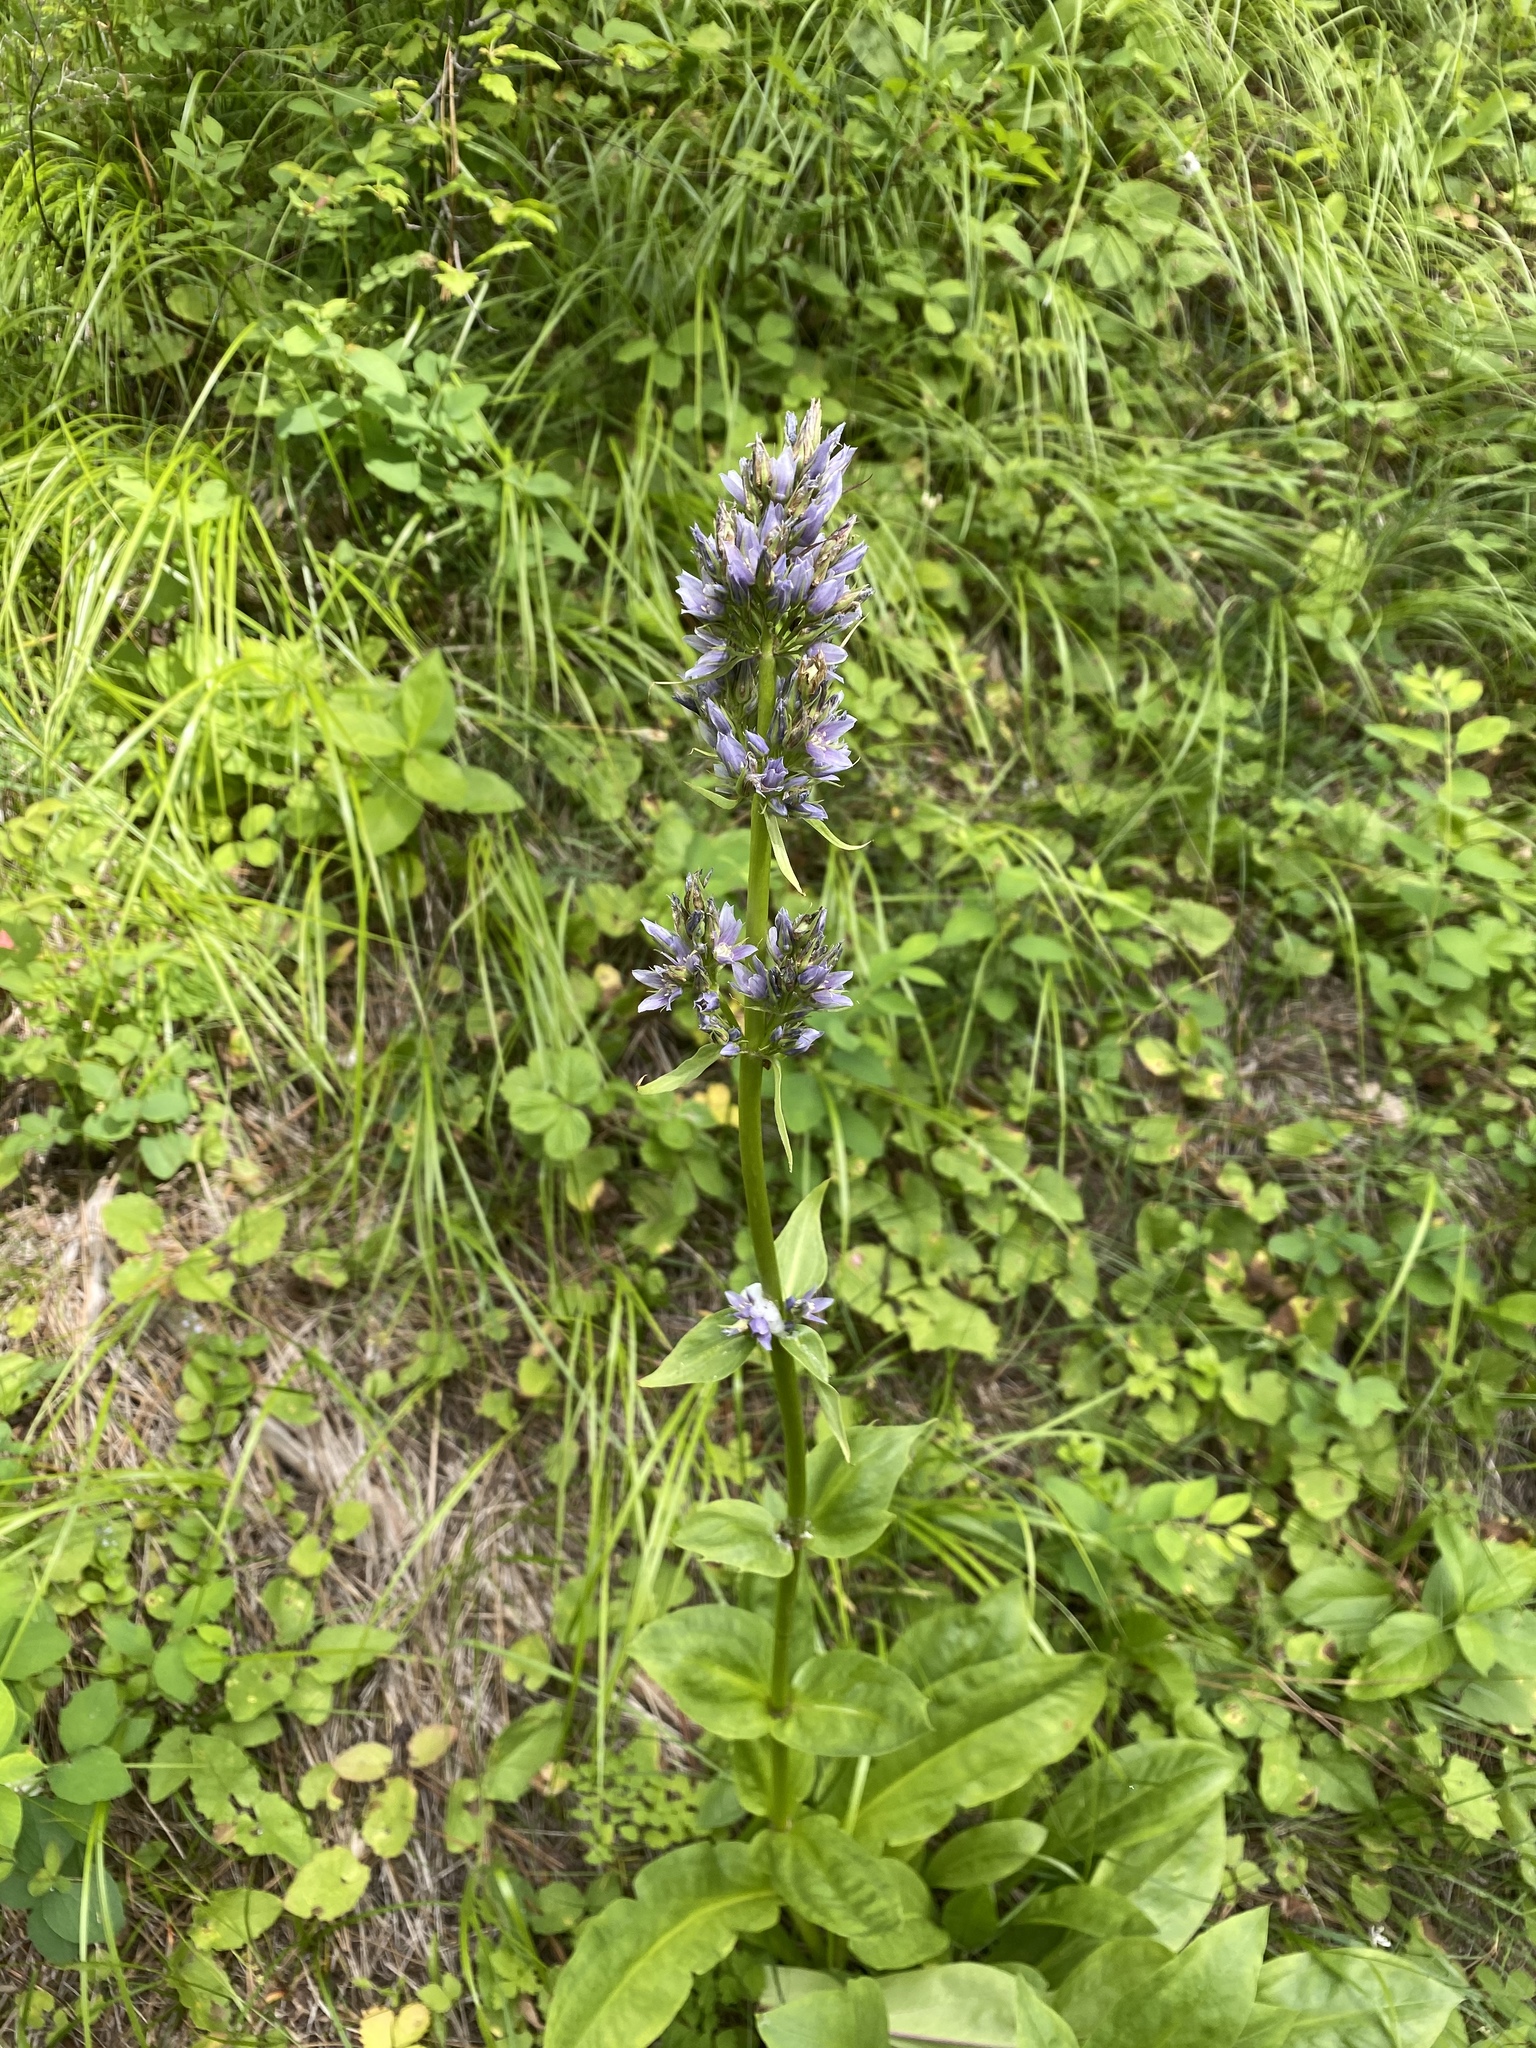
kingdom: Plantae
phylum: Tracheophyta
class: Magnoliopsida
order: Gentianales
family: Gentianaceae
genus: Frasera
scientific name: Frasera fastigiata
